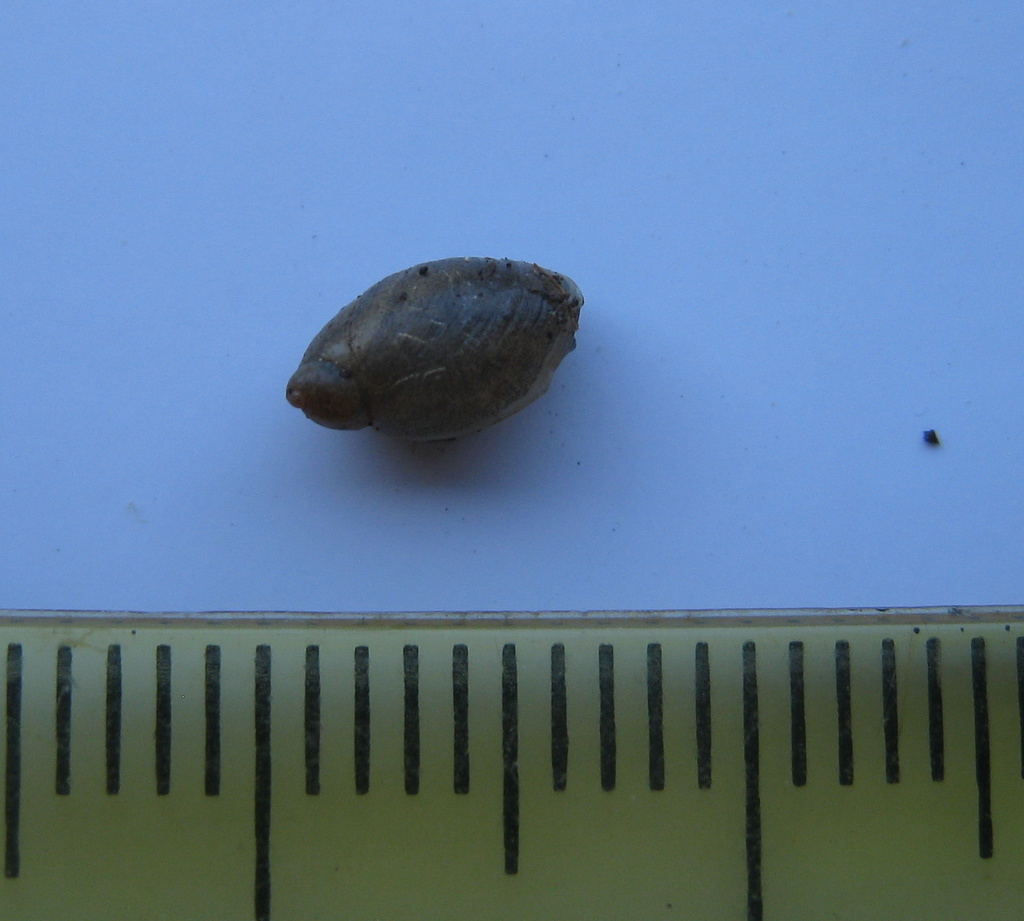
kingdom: Animalia
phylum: Mollusca
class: Gastropoda
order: Stylommatophora
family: Succineidae
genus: Succinea
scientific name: Succinea putris
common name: European ambersnail
